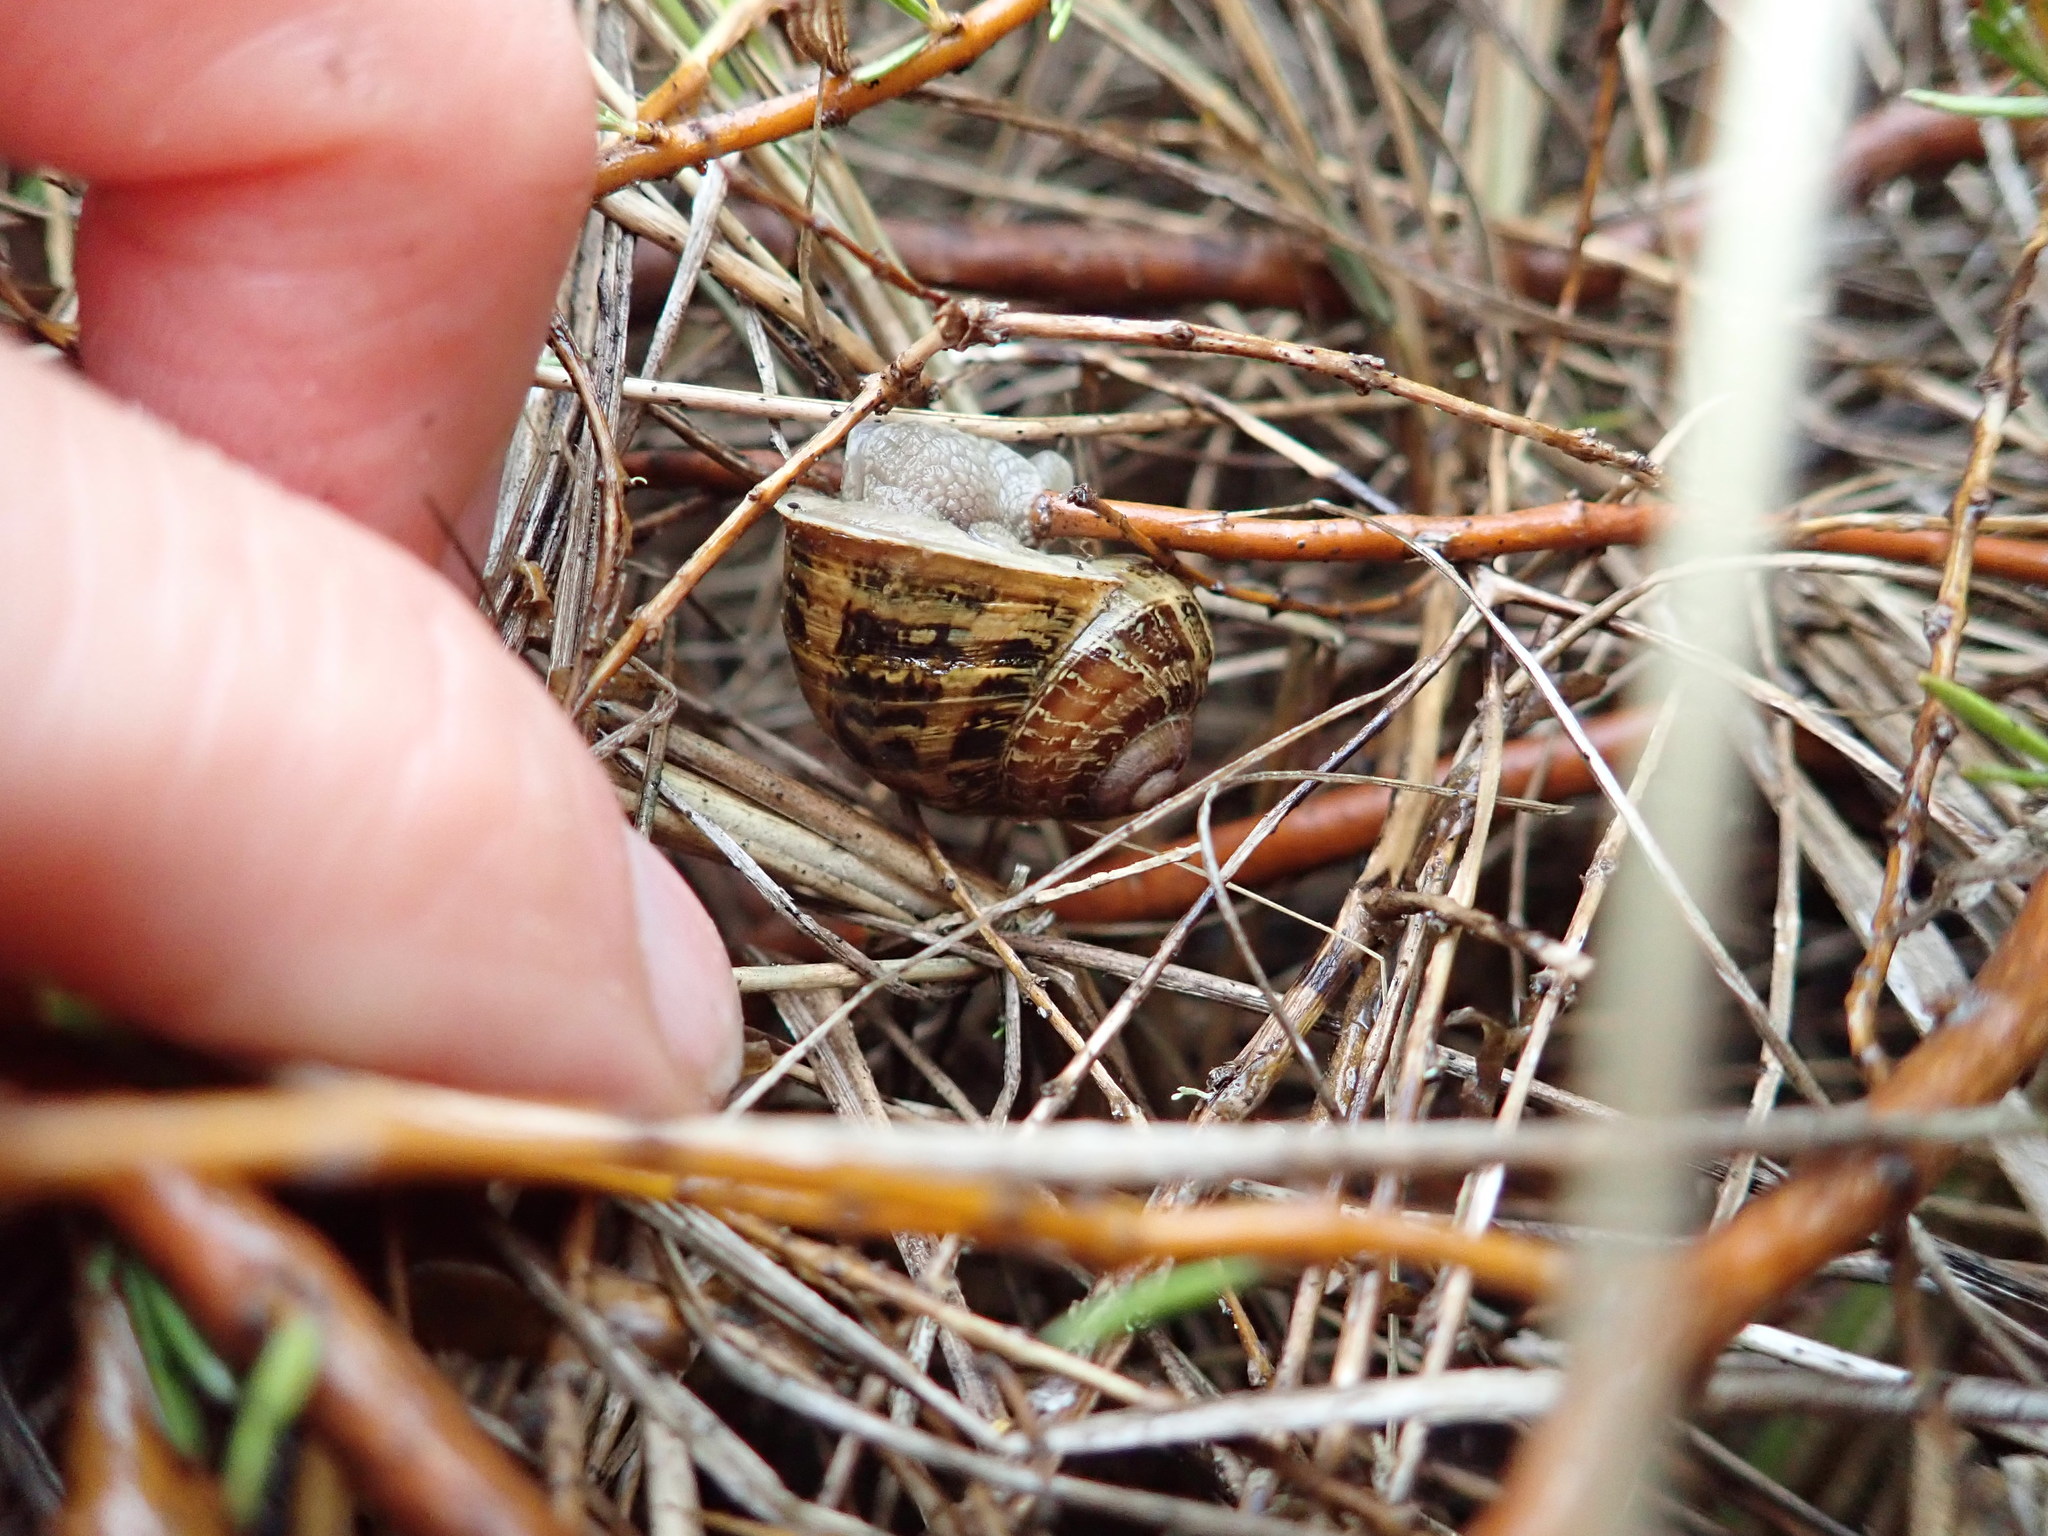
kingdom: Plantae
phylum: Tracheophyta
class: Magnoliopsida
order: Gentianales
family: Rubiaceae
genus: Coprosma
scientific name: Coprosma acerosa
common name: Sand coprosma
